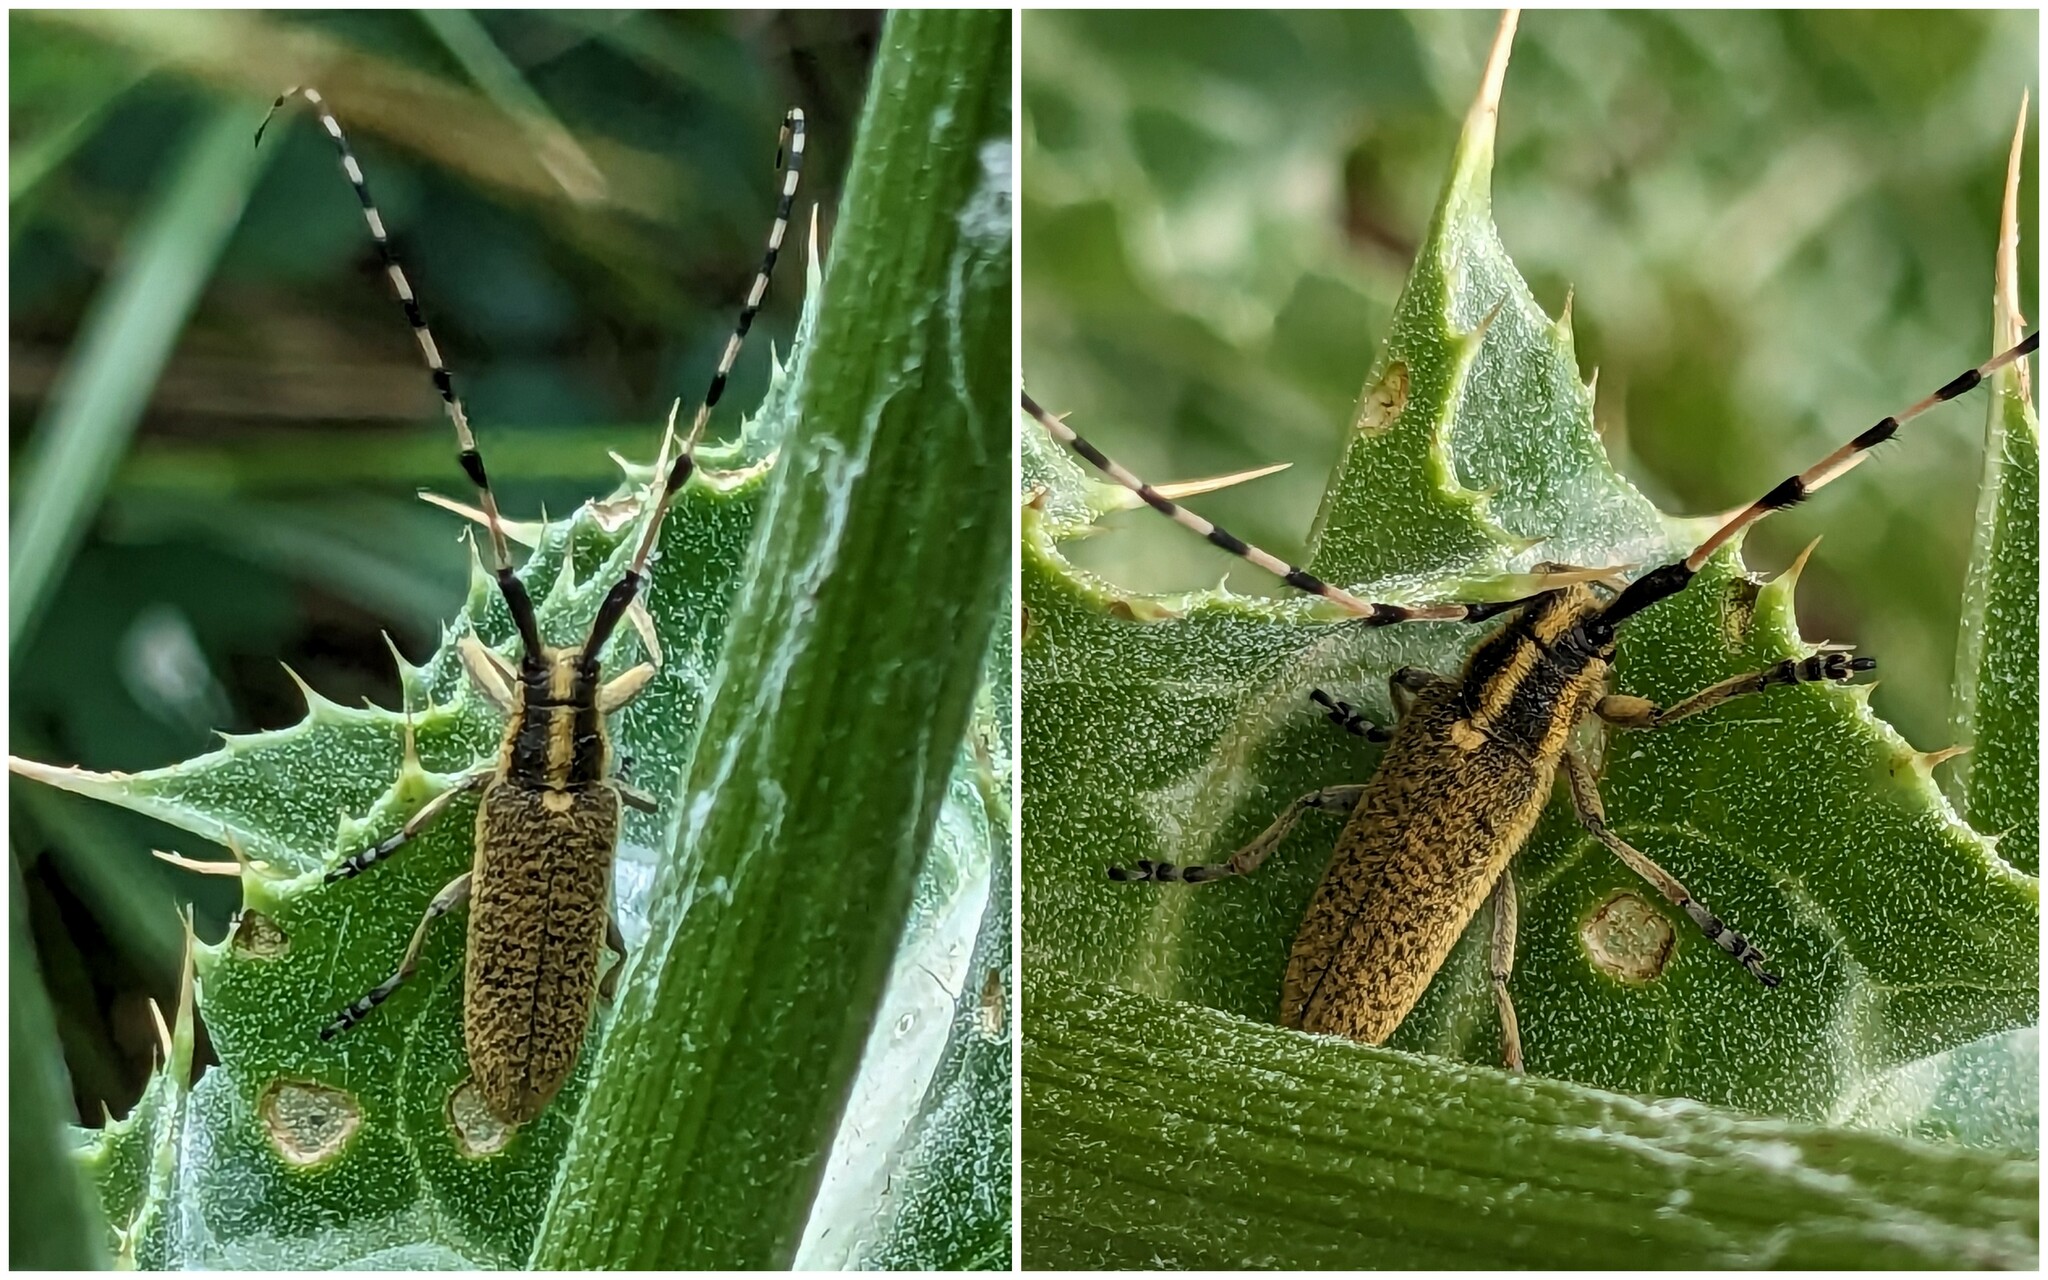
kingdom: Animalia
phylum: Arthropoda
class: Insecta
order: Coleoptera
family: Cerambycidae
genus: Agapanthia
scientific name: Agapanthia dahlii
